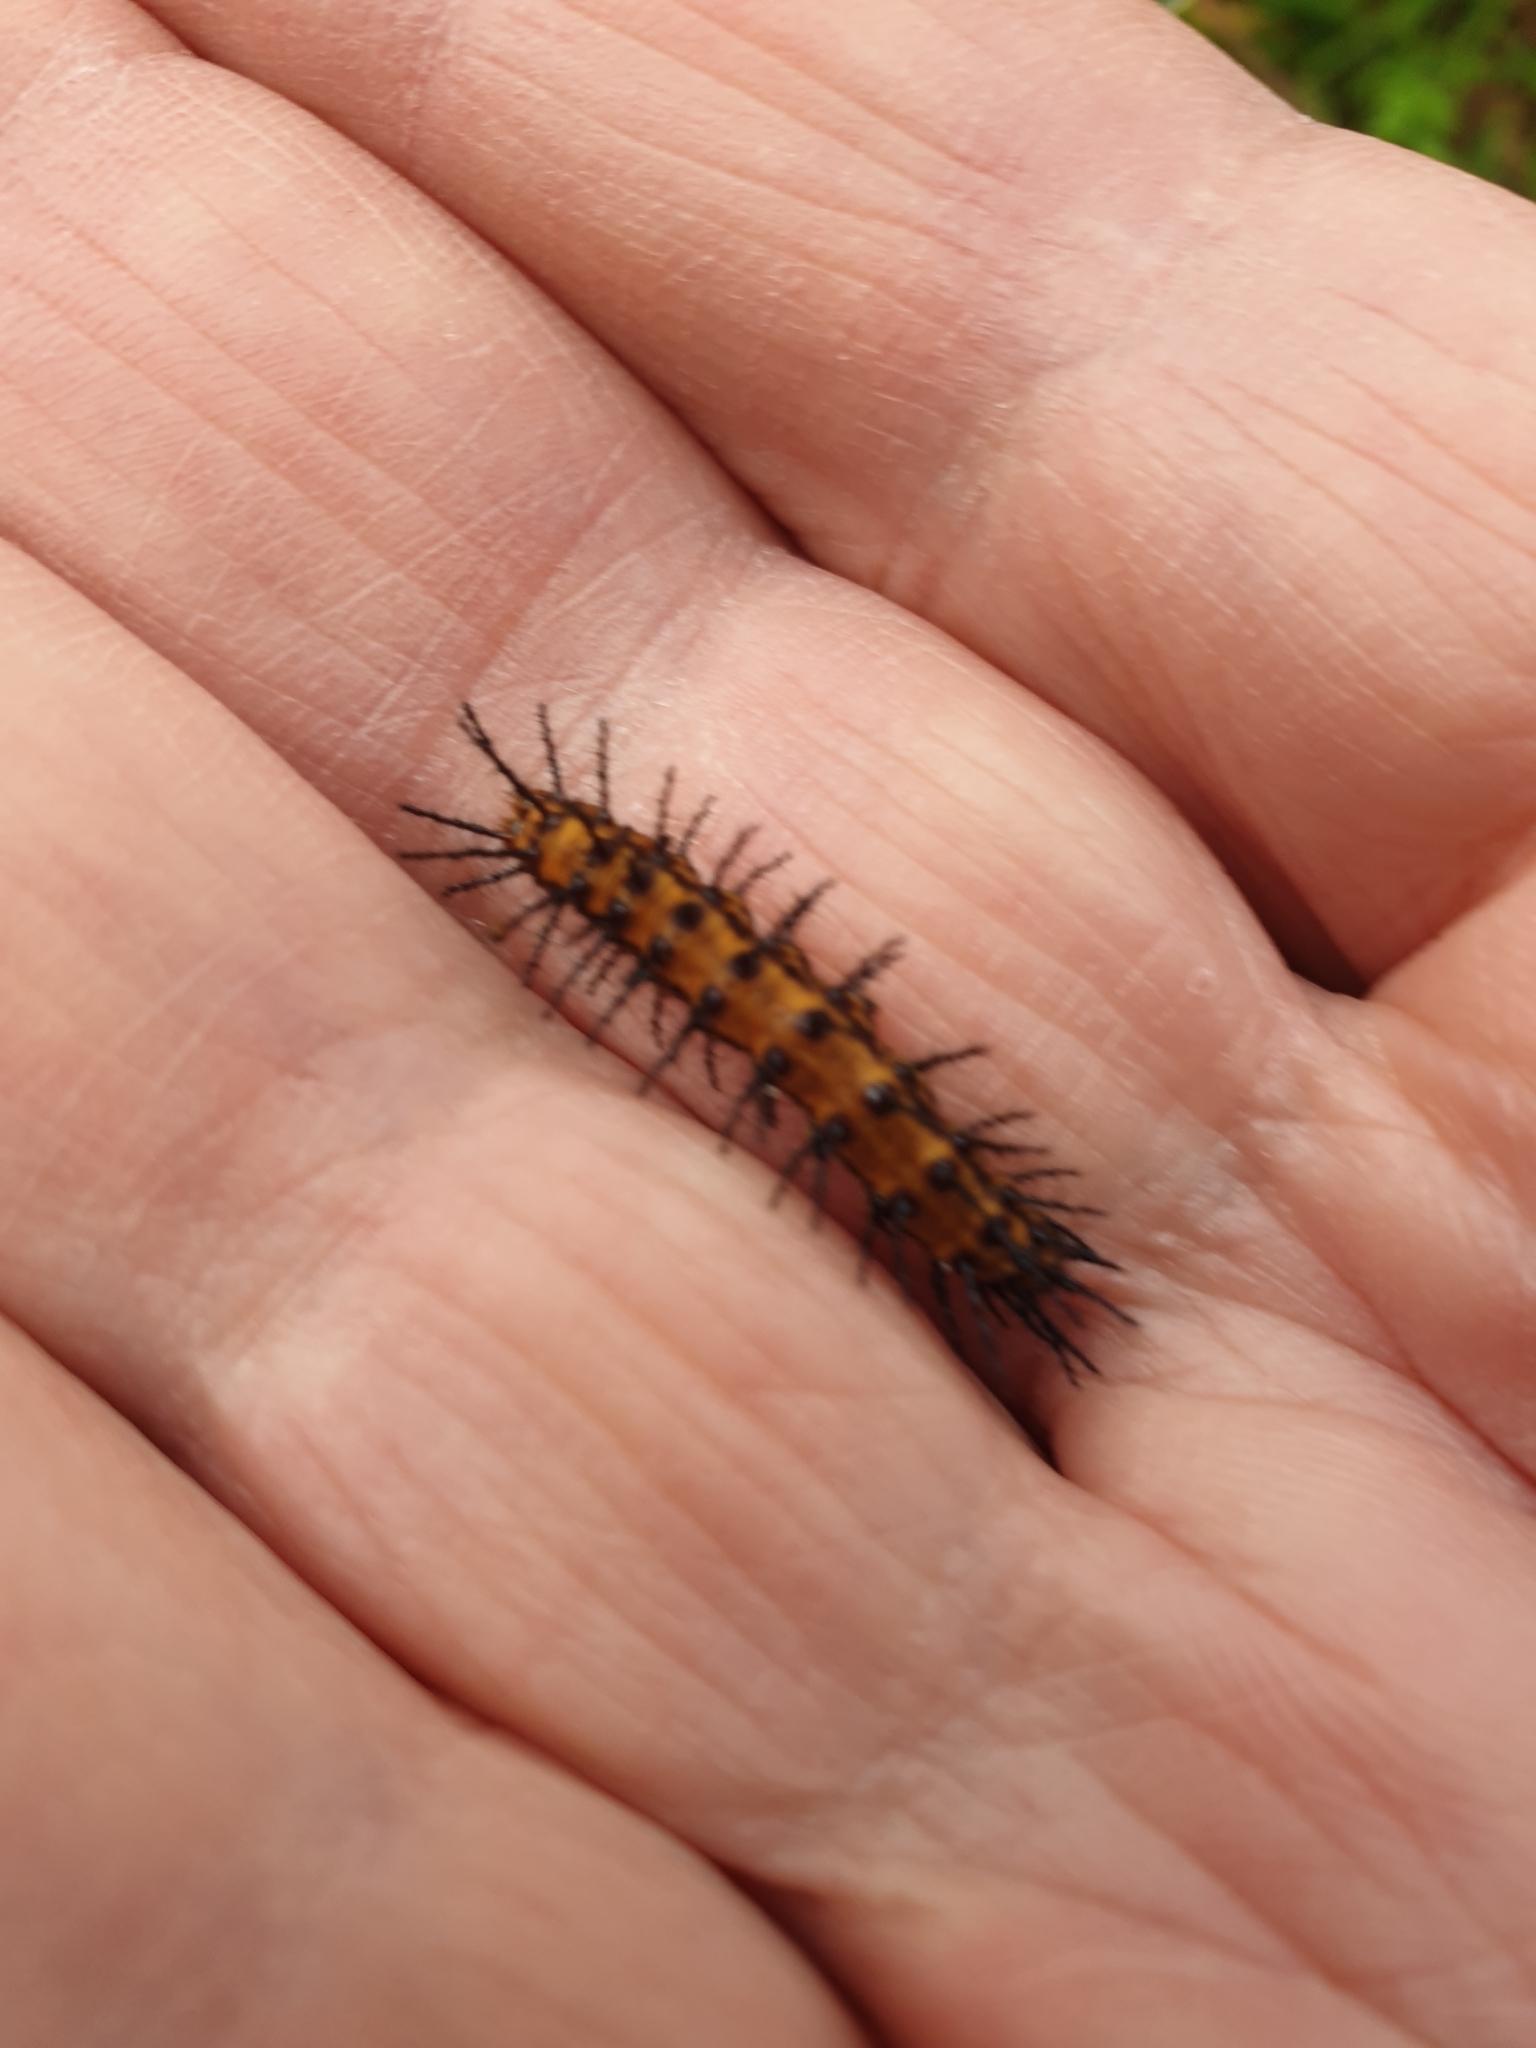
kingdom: Animalia
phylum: Arthropoda
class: Insecta
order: Lepidoptera
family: Nymphalidae
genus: Acraea
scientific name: Acraea andromacha
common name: Glasswing
